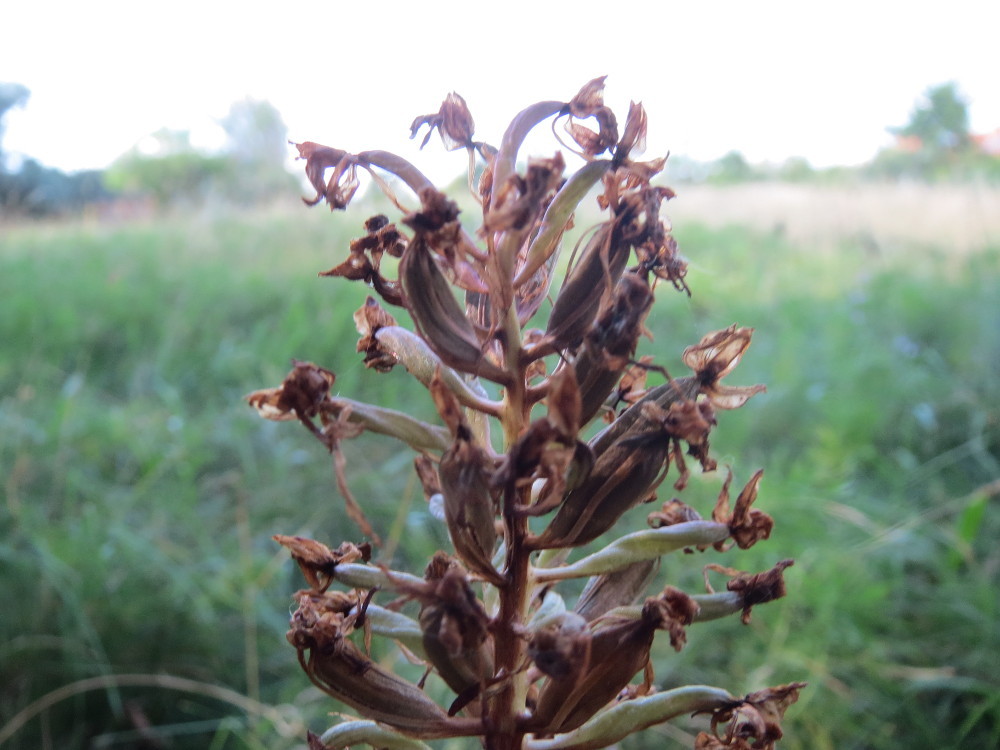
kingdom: Plantae
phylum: Tracheophyta
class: Liliopsida
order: Asparagales
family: Orchidaceae
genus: Anacamptis
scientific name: Anacamptis pyramidalis
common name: Pyramidal orchid
